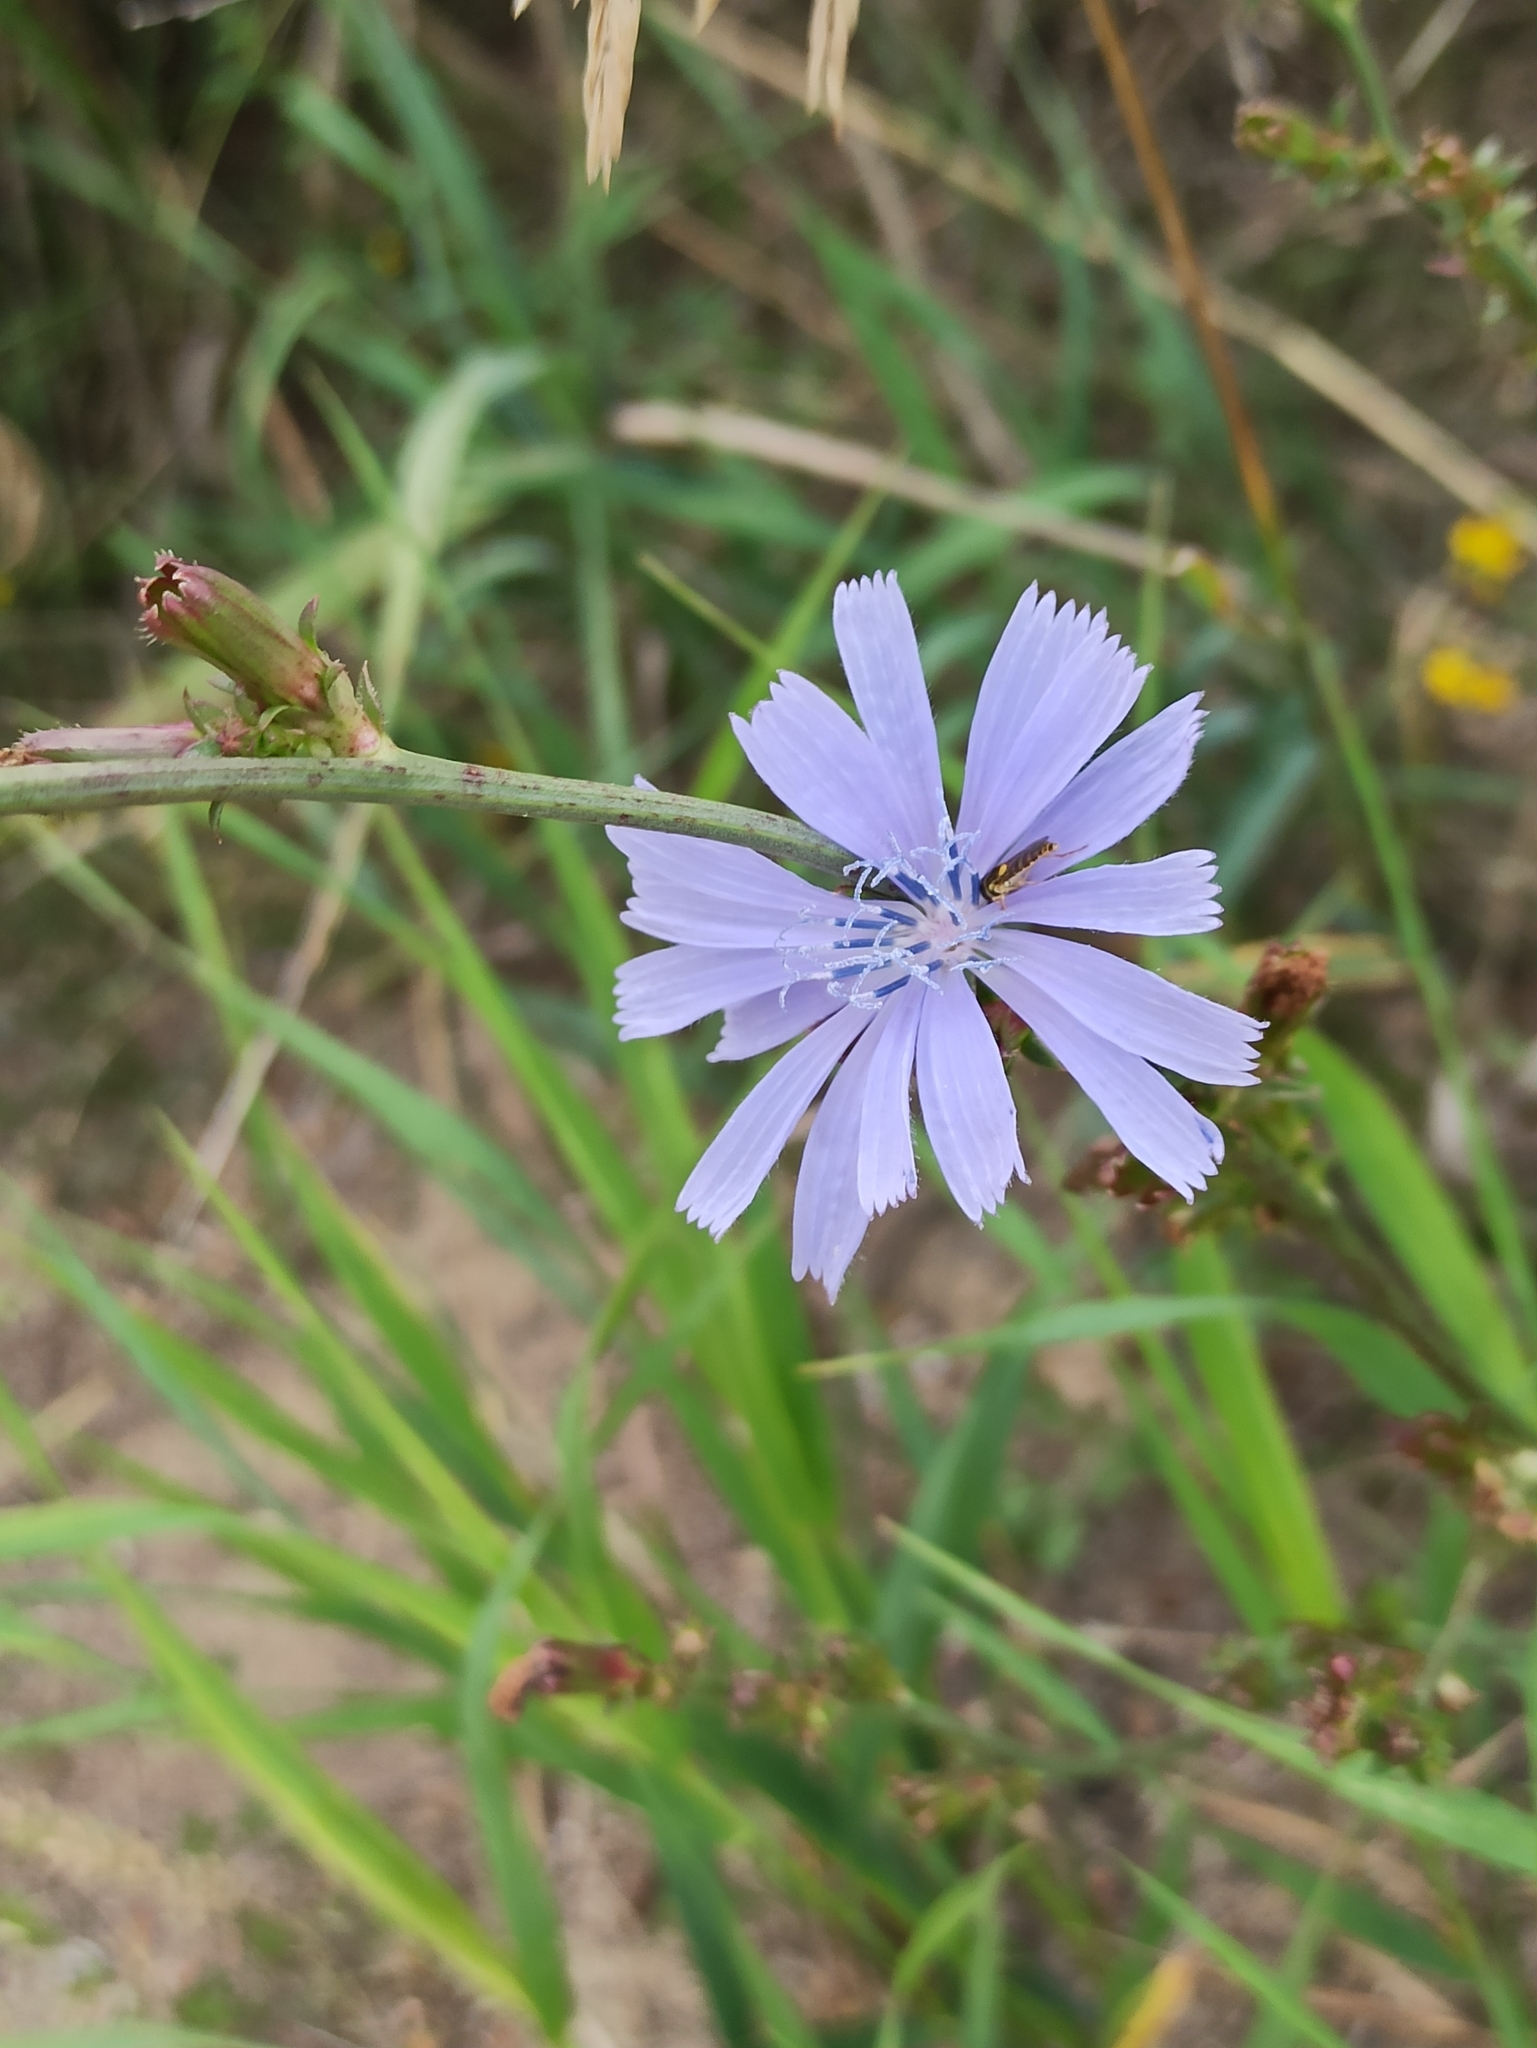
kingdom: Plantae
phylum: Tracheophyta
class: Magnoliopsida
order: Asterales
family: Asteraceae
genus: Cichorium
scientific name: Cichorium intybus
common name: Chicory
